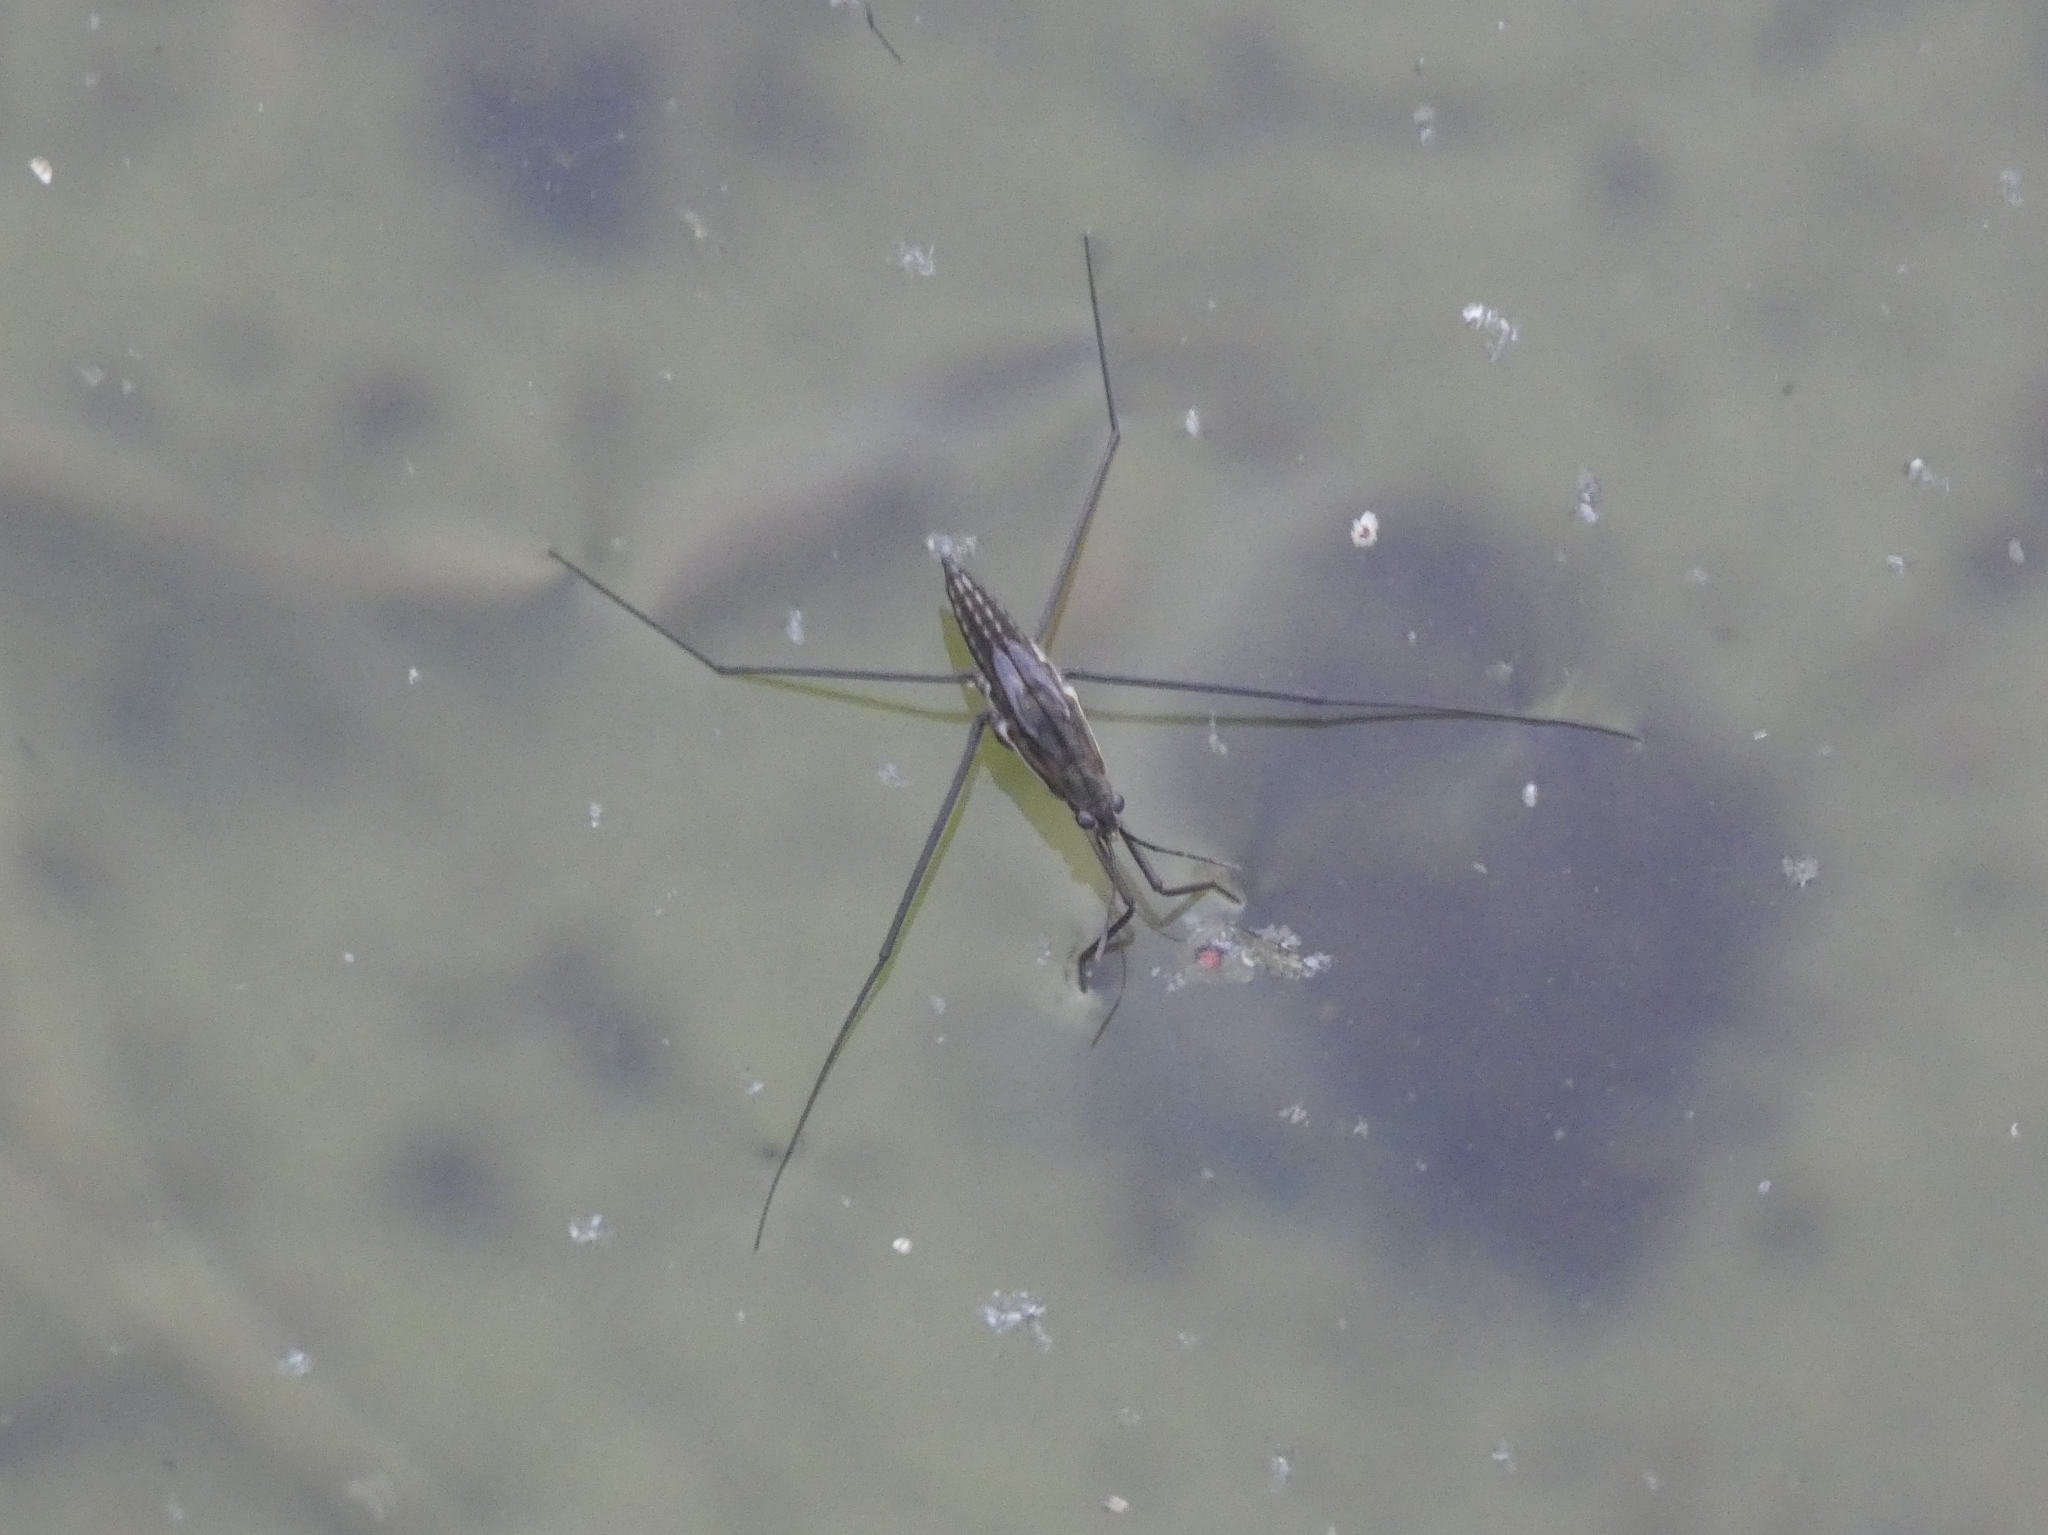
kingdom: Animalia
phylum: Arthropoda
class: Insecta
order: Hemiptera
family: Gerridae
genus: Aquarius
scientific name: Aquarius paludum
